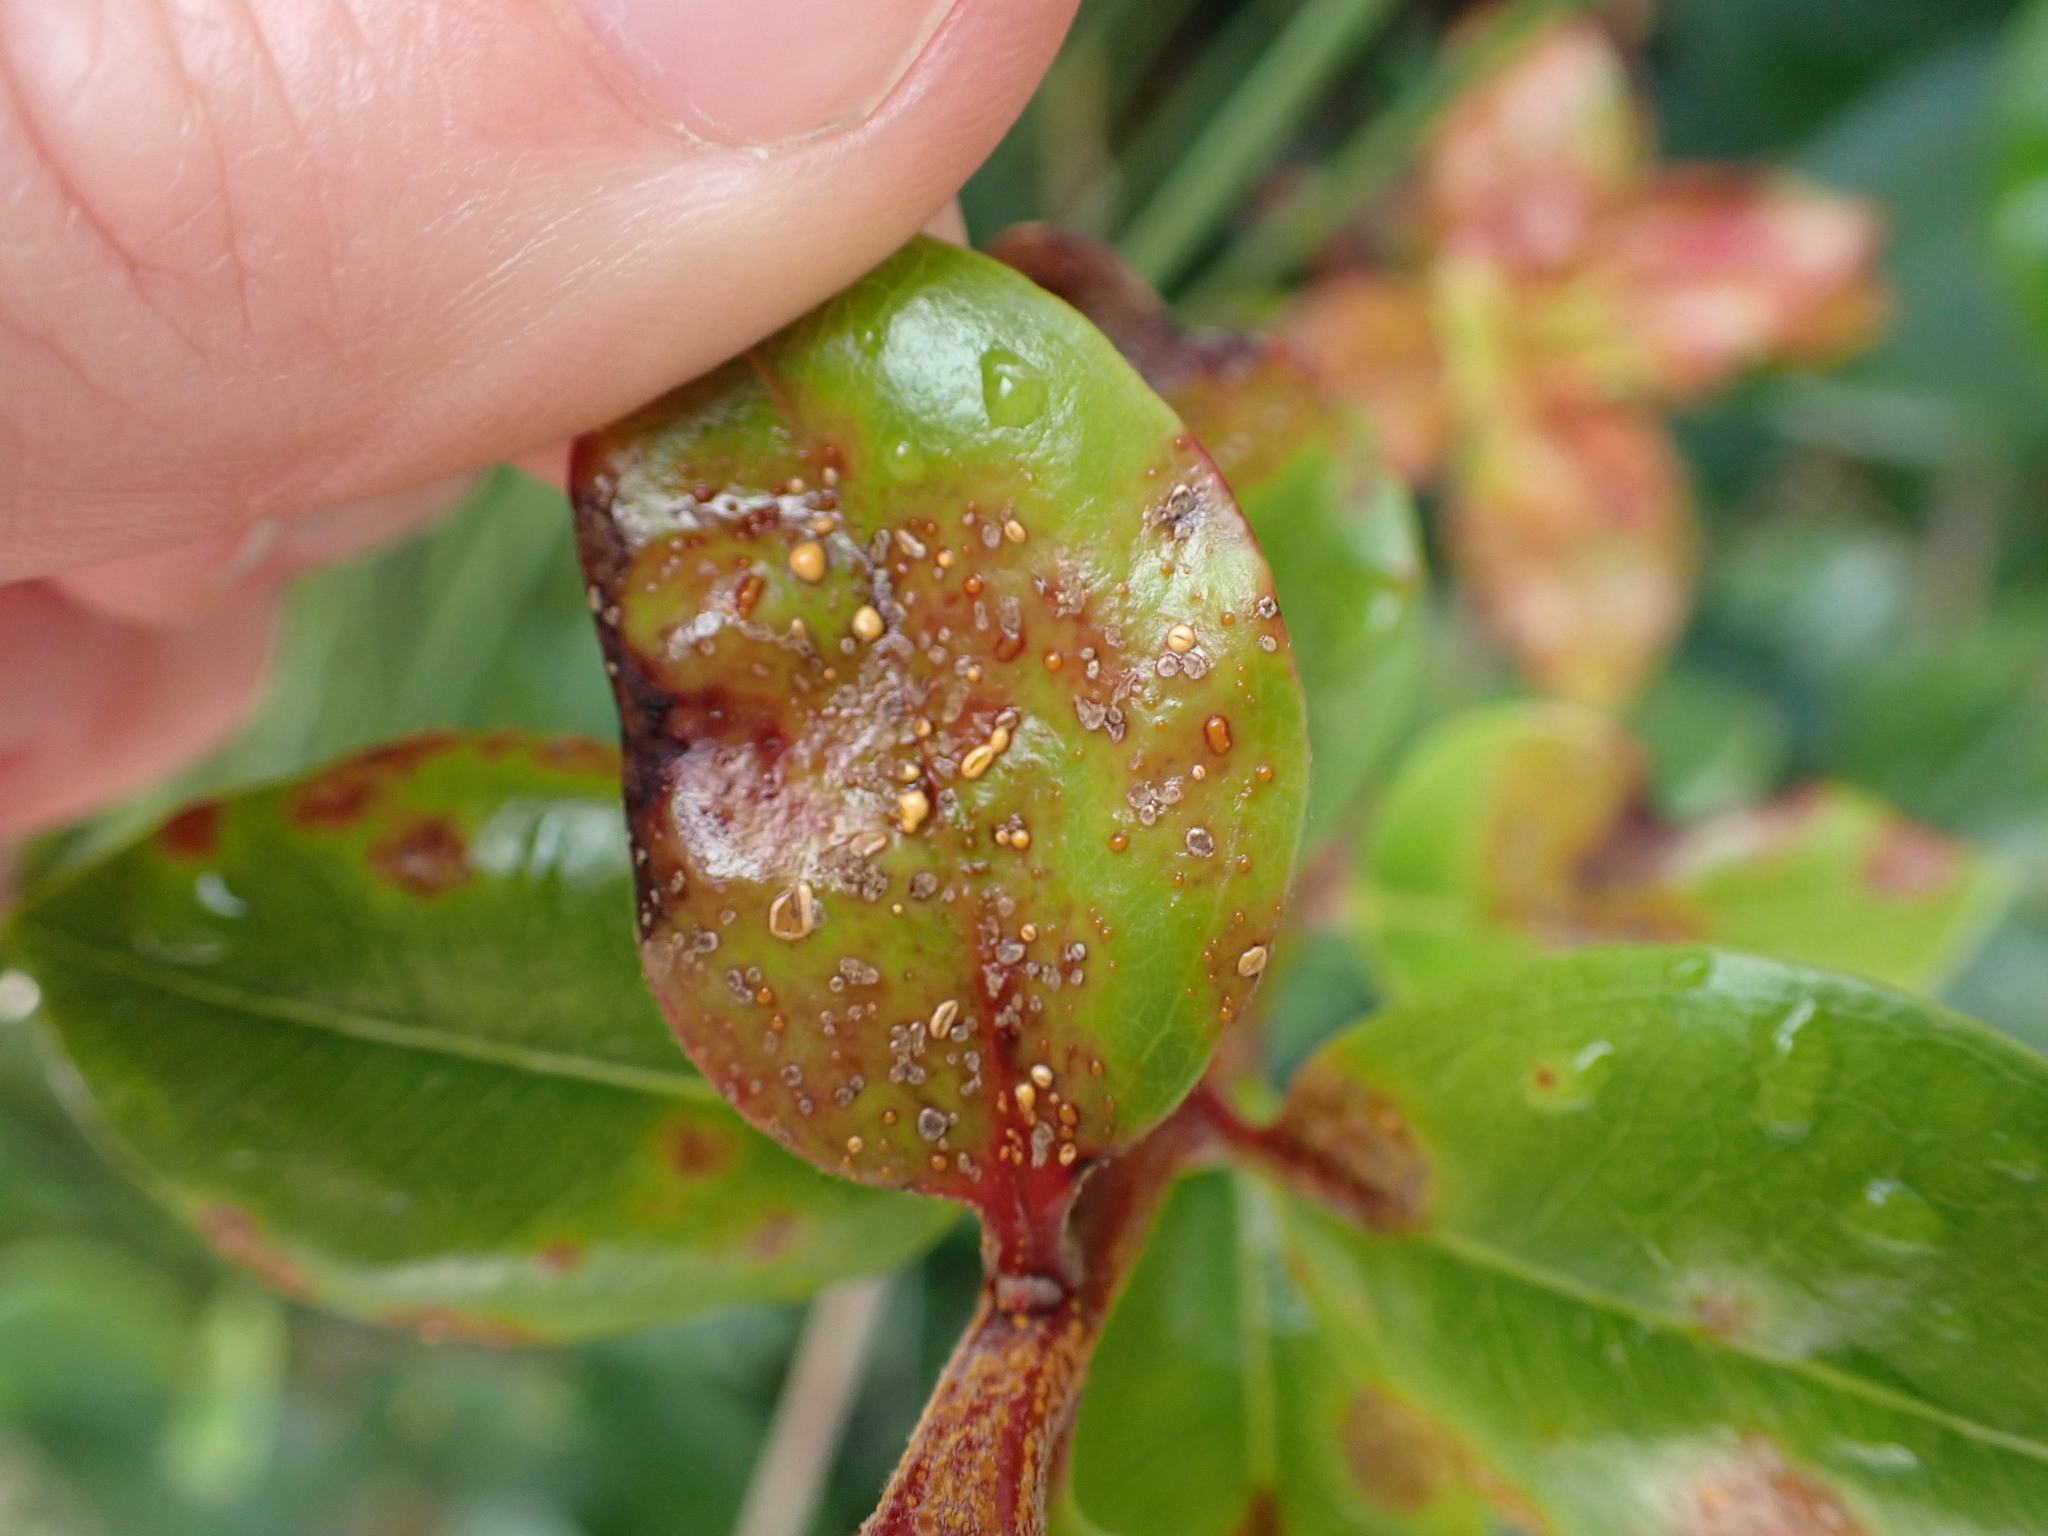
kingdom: Fungi
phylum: Basidiomycota
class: Pucciniomycetes
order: Pucciniales
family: Sphaerophragmiaceae
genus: Austropuccinia
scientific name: Austropuccinia psidii
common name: Myrtle rust
